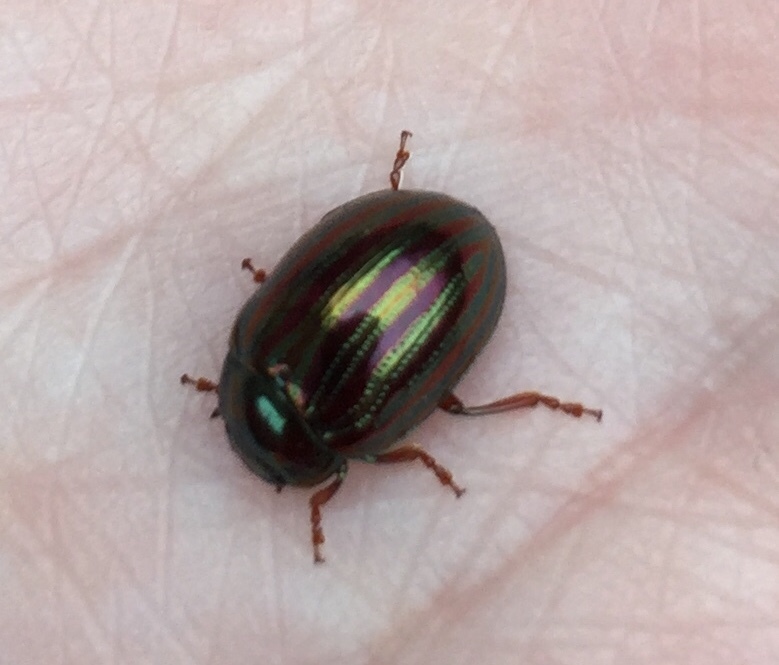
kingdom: Animalia
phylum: Arthropoda
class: Insecta
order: Coleoptera
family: Chrysomelidae
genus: Chrysolina
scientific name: Chrysolina americana
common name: Rosemary beetle
